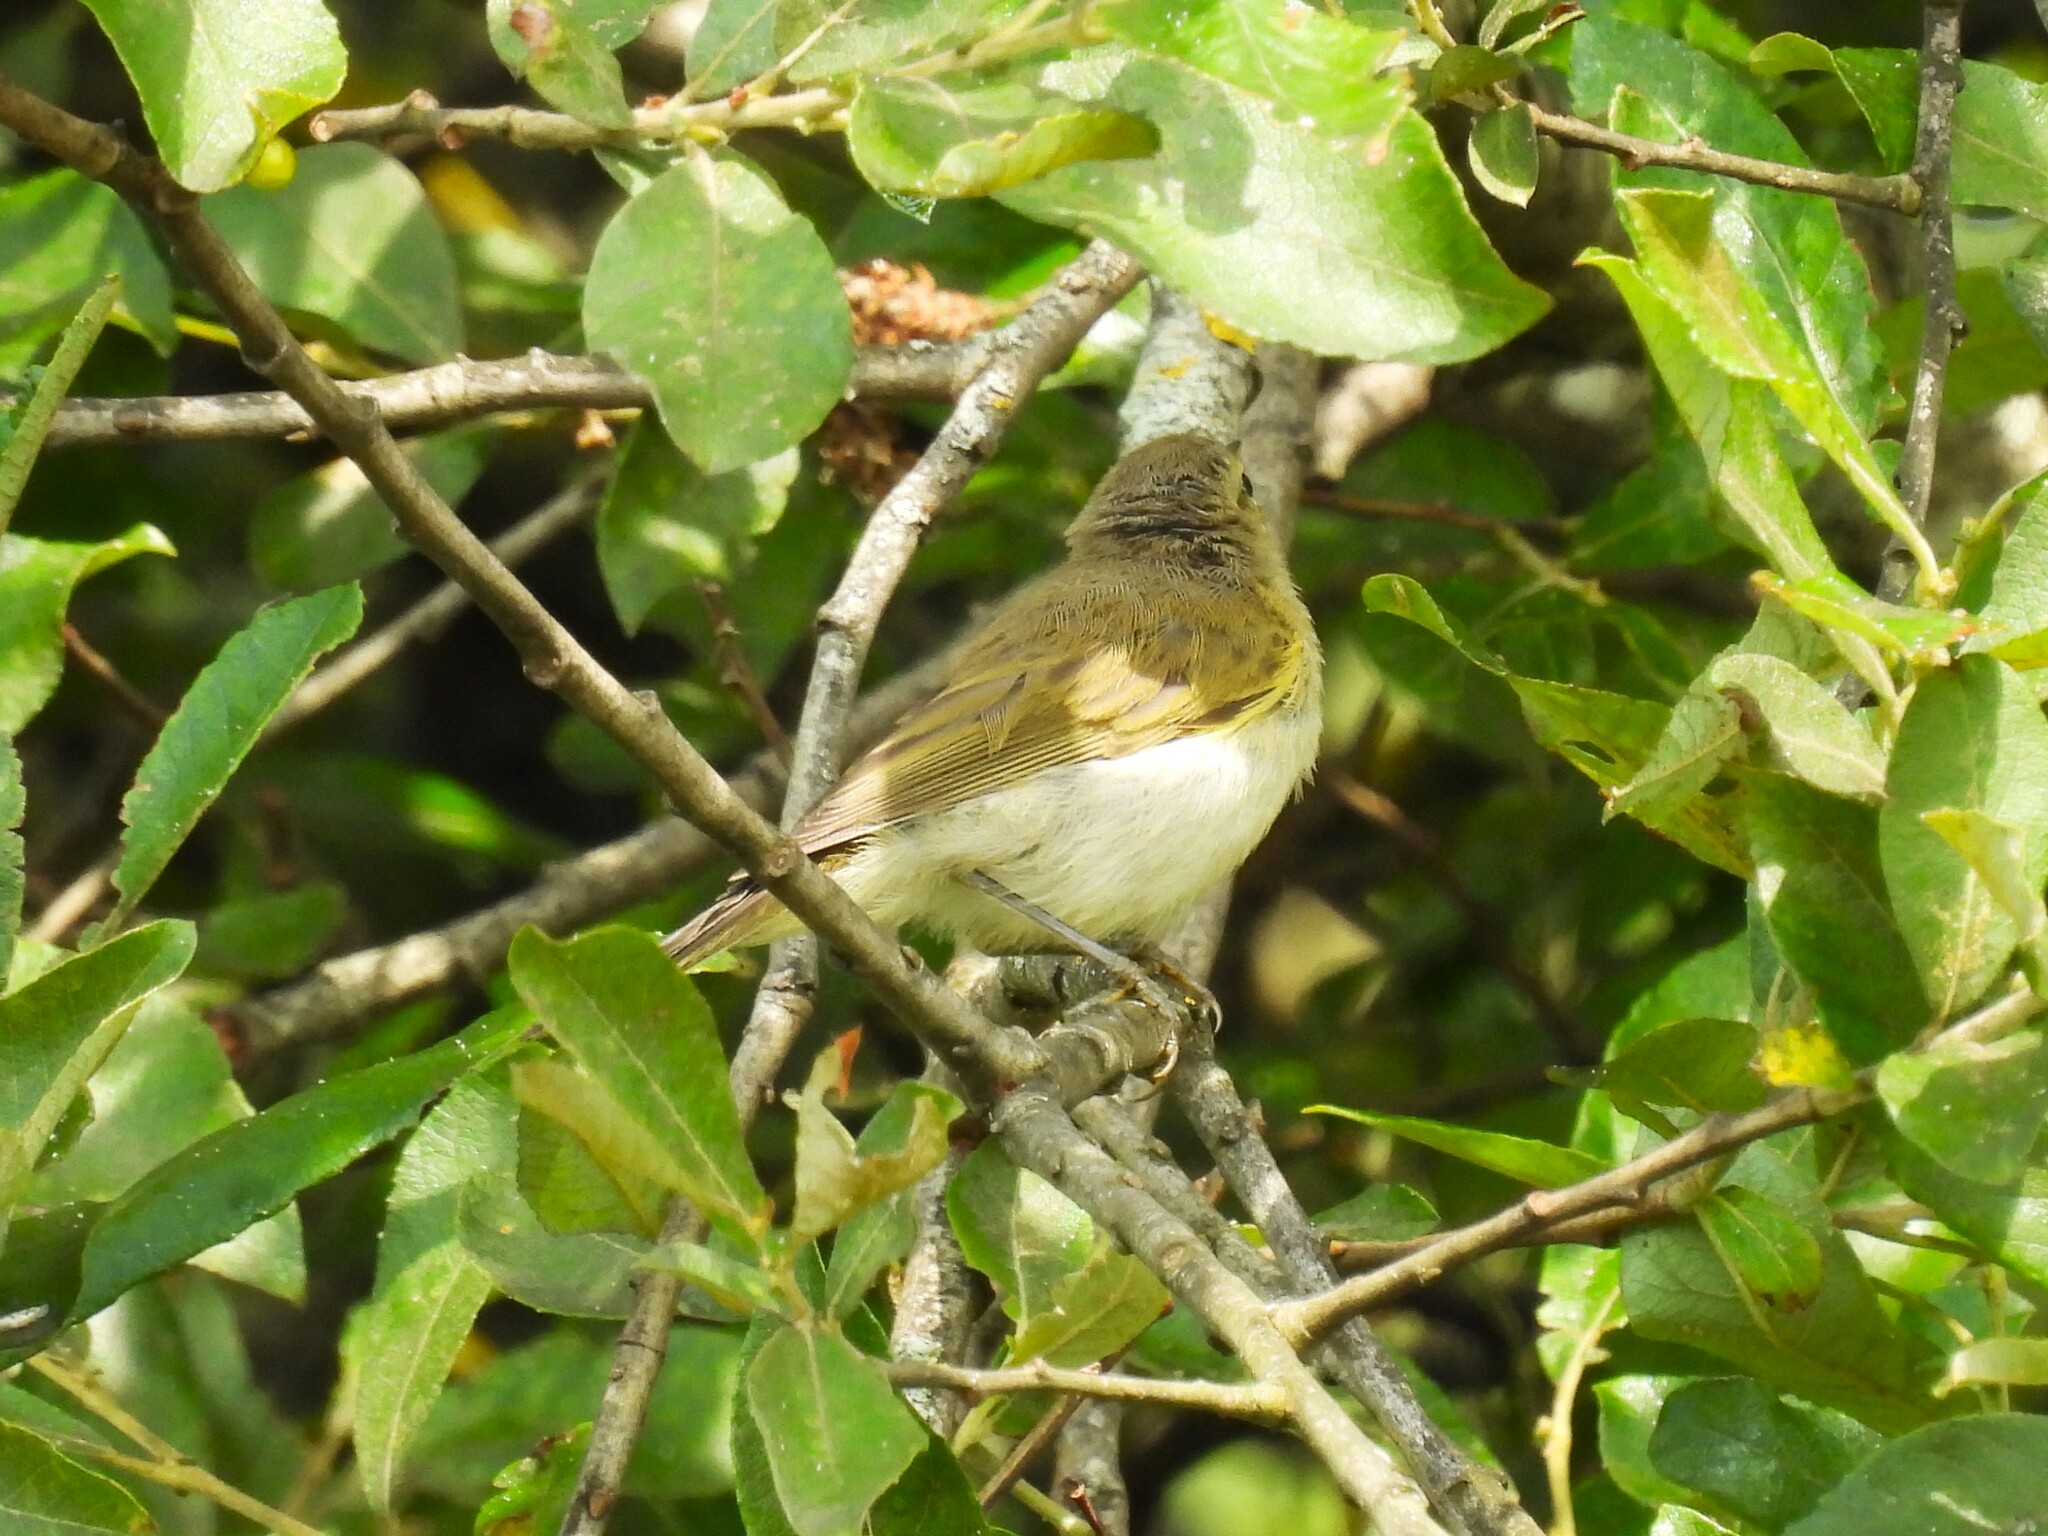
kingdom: Animalia
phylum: Chordata
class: Aves
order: Passeriformes
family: Phylloscopidae
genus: Phylloscopus
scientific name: Phylloscopus trochilus
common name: Willow warbler
